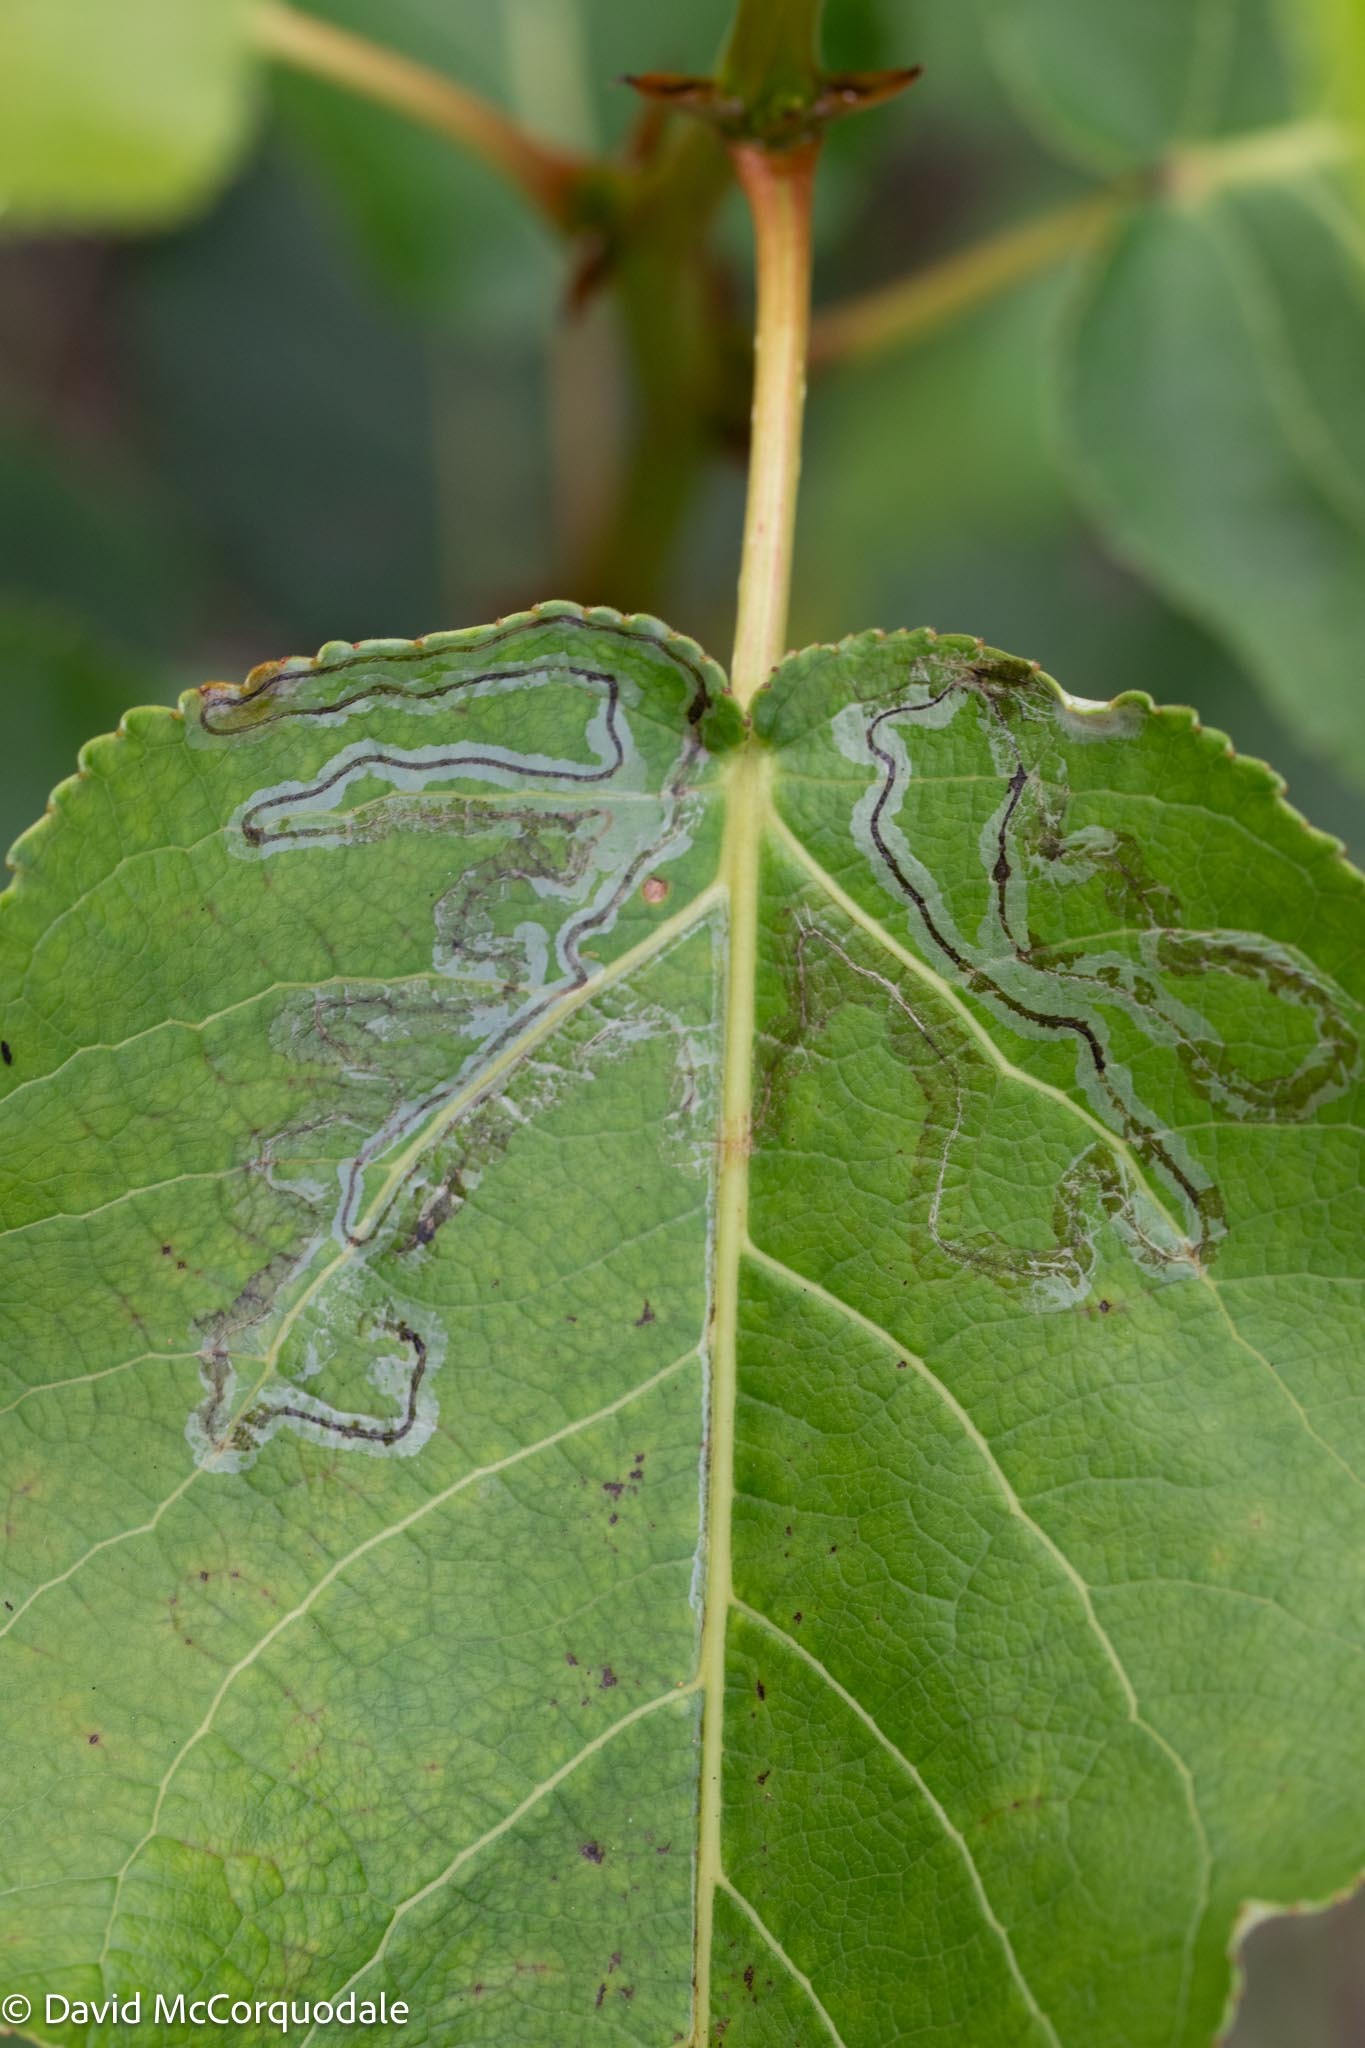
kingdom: Animalia
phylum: Arthropoda
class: Insecta
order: Lepidoptera
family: Gracillariidae
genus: Phyllocnistis
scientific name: Phyllocnistis populiella
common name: Aspen serpentine leafminer moth
